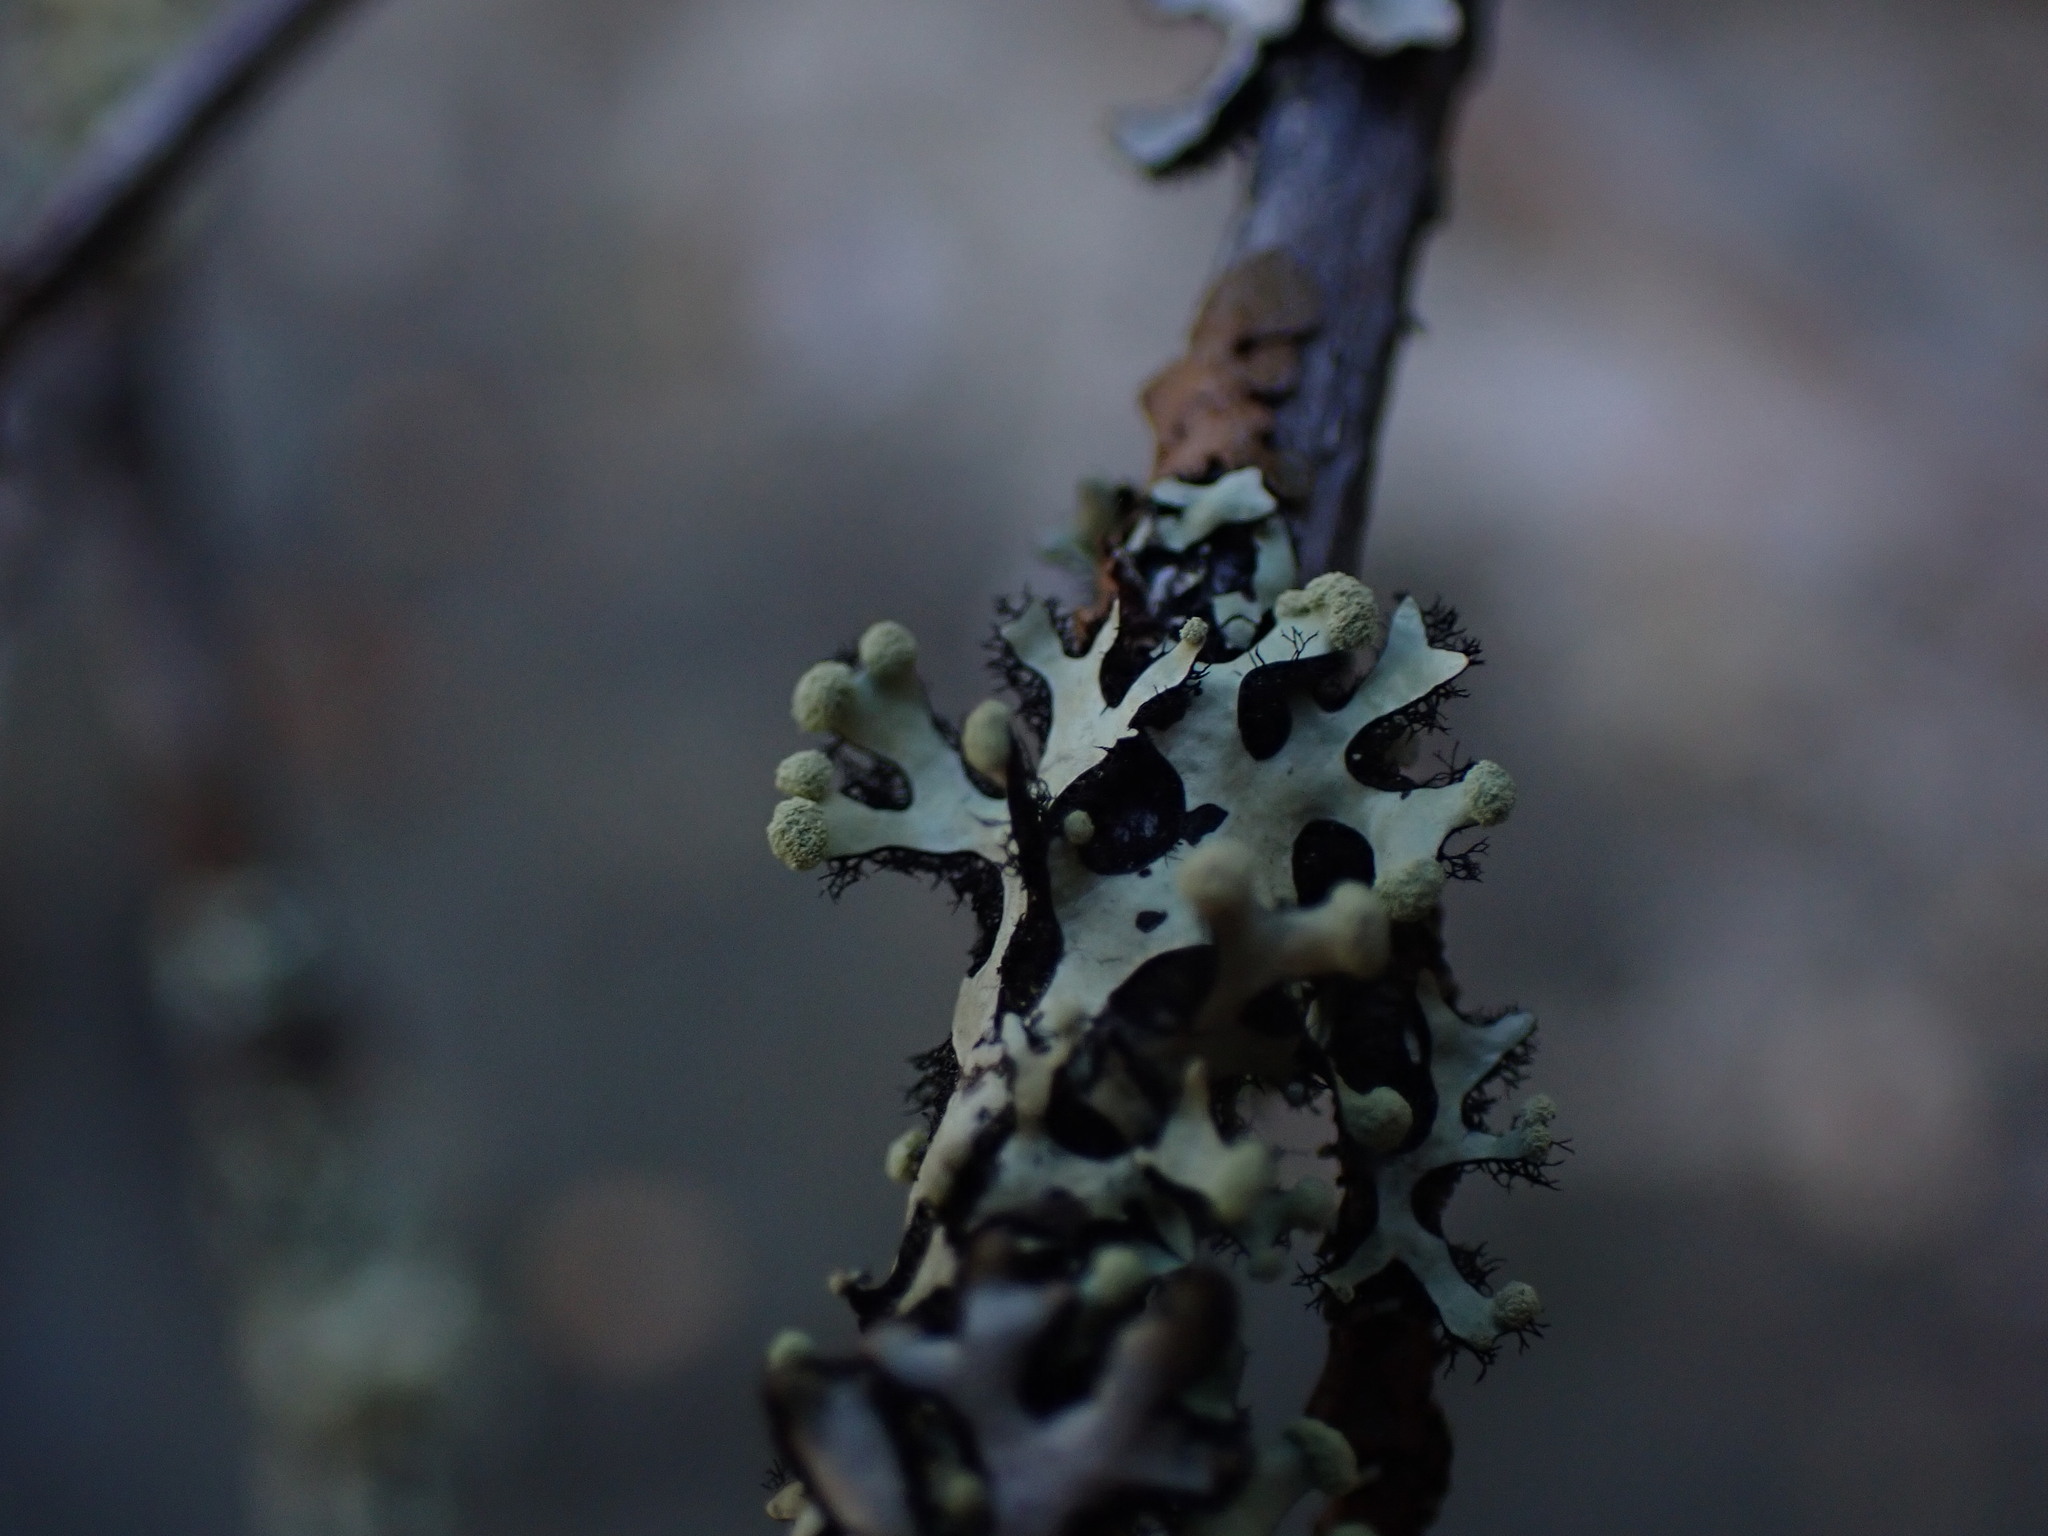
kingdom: Fungi
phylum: Ascomycota
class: Lecanoromycetes
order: Lecanorales
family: Parmeliaceae
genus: Hypotrachyna
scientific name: Hypotrachyna sinuosa
